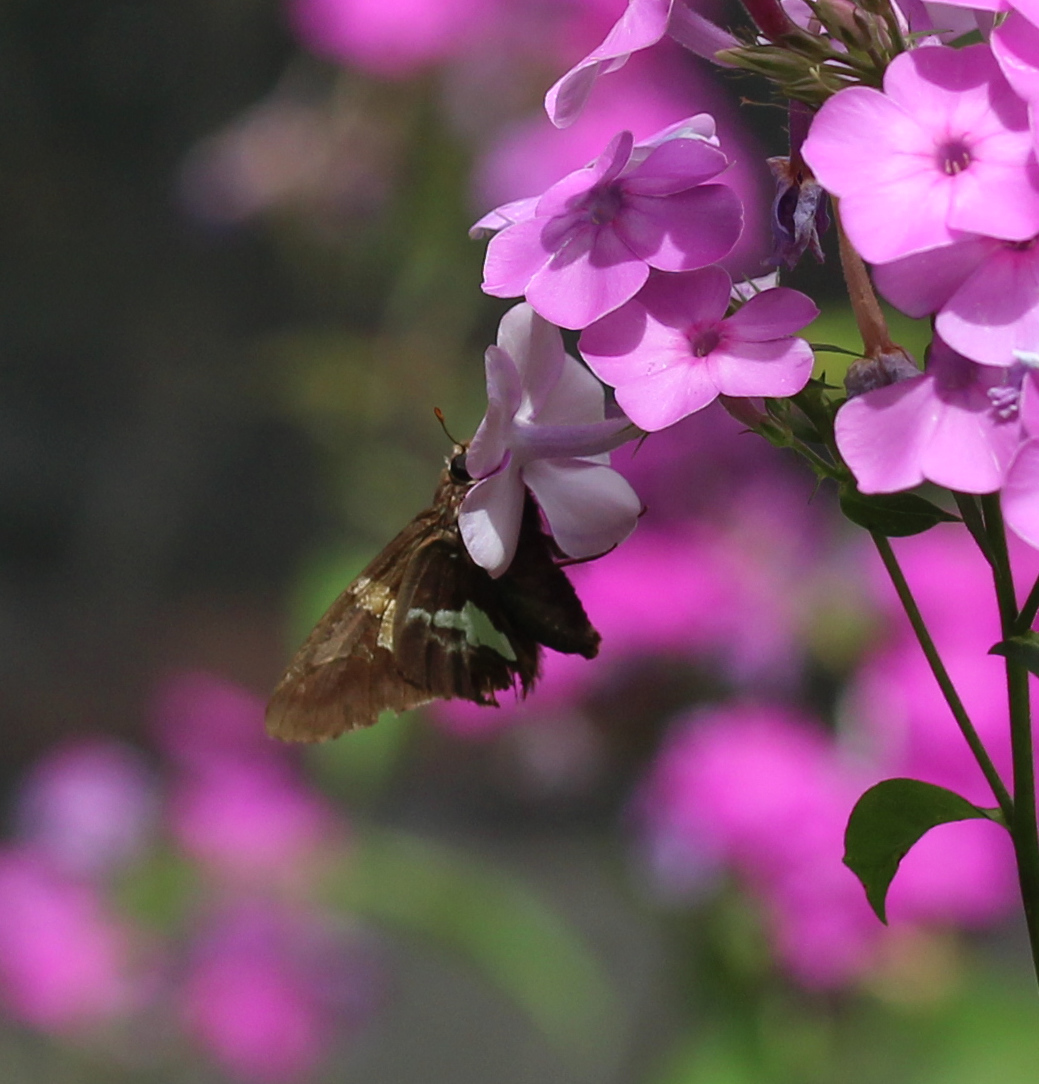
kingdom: Animalia
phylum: Arthropoda
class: Insecta
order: Lepidoptera
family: Hesperiidae
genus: Epargyreus
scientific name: Epargyreus clarus
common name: Silver-spotted skipper
